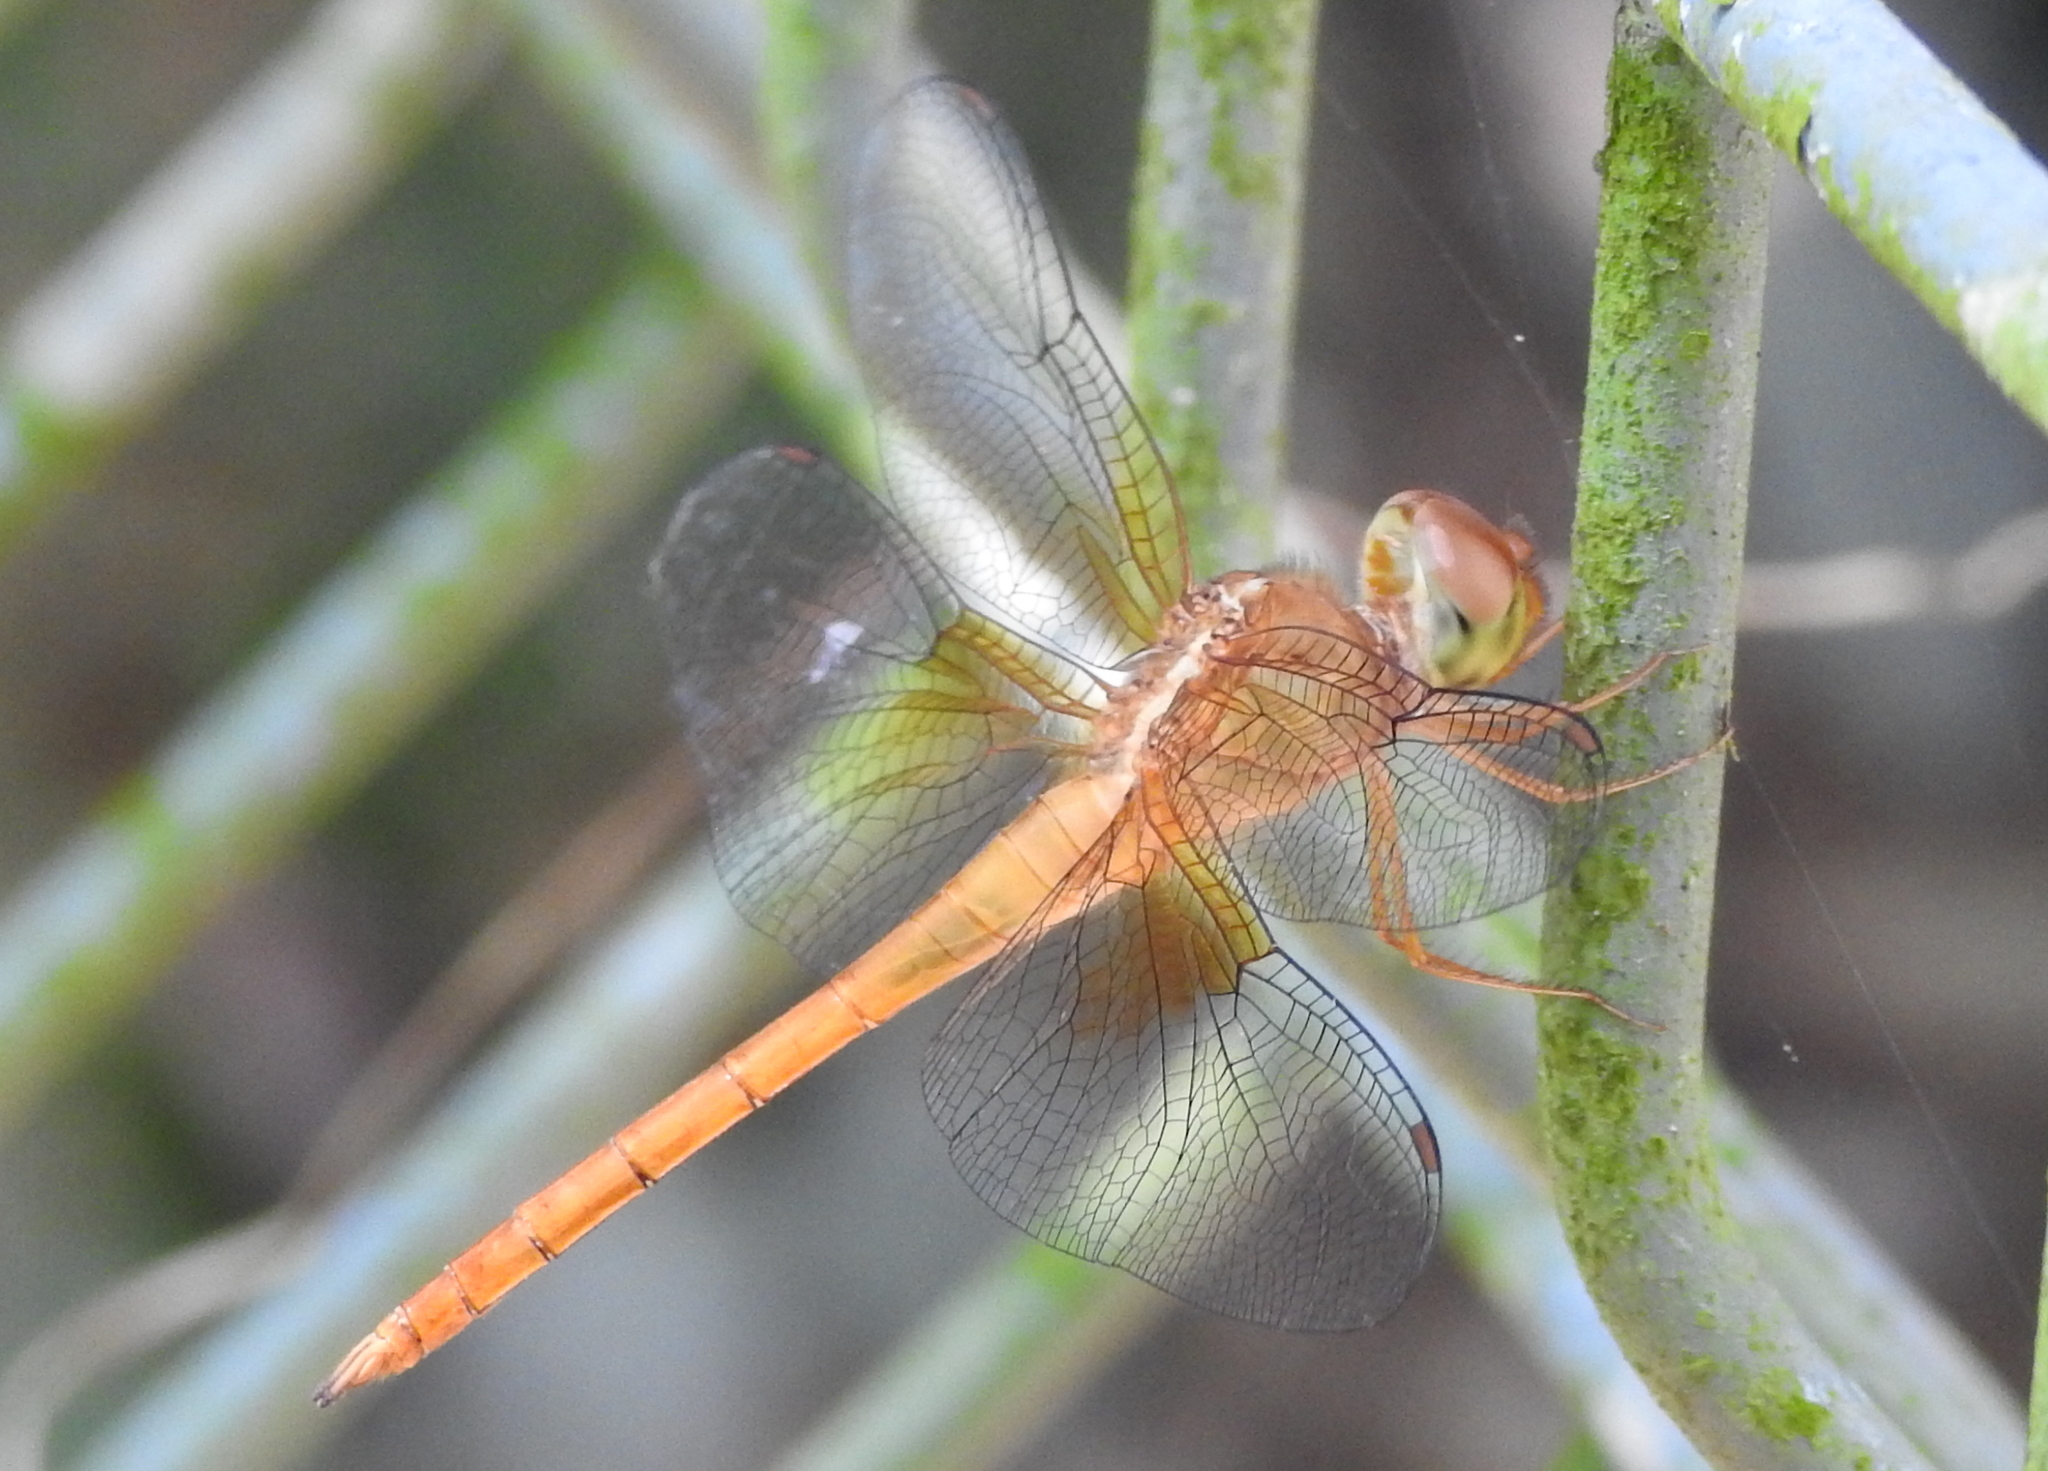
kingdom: Animalia
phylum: Arthropoda
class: Insecta
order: Odonata
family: Libellulidae
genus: Tholymis
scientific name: Tholymis tillarga
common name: Coral-tailed cloud wing
